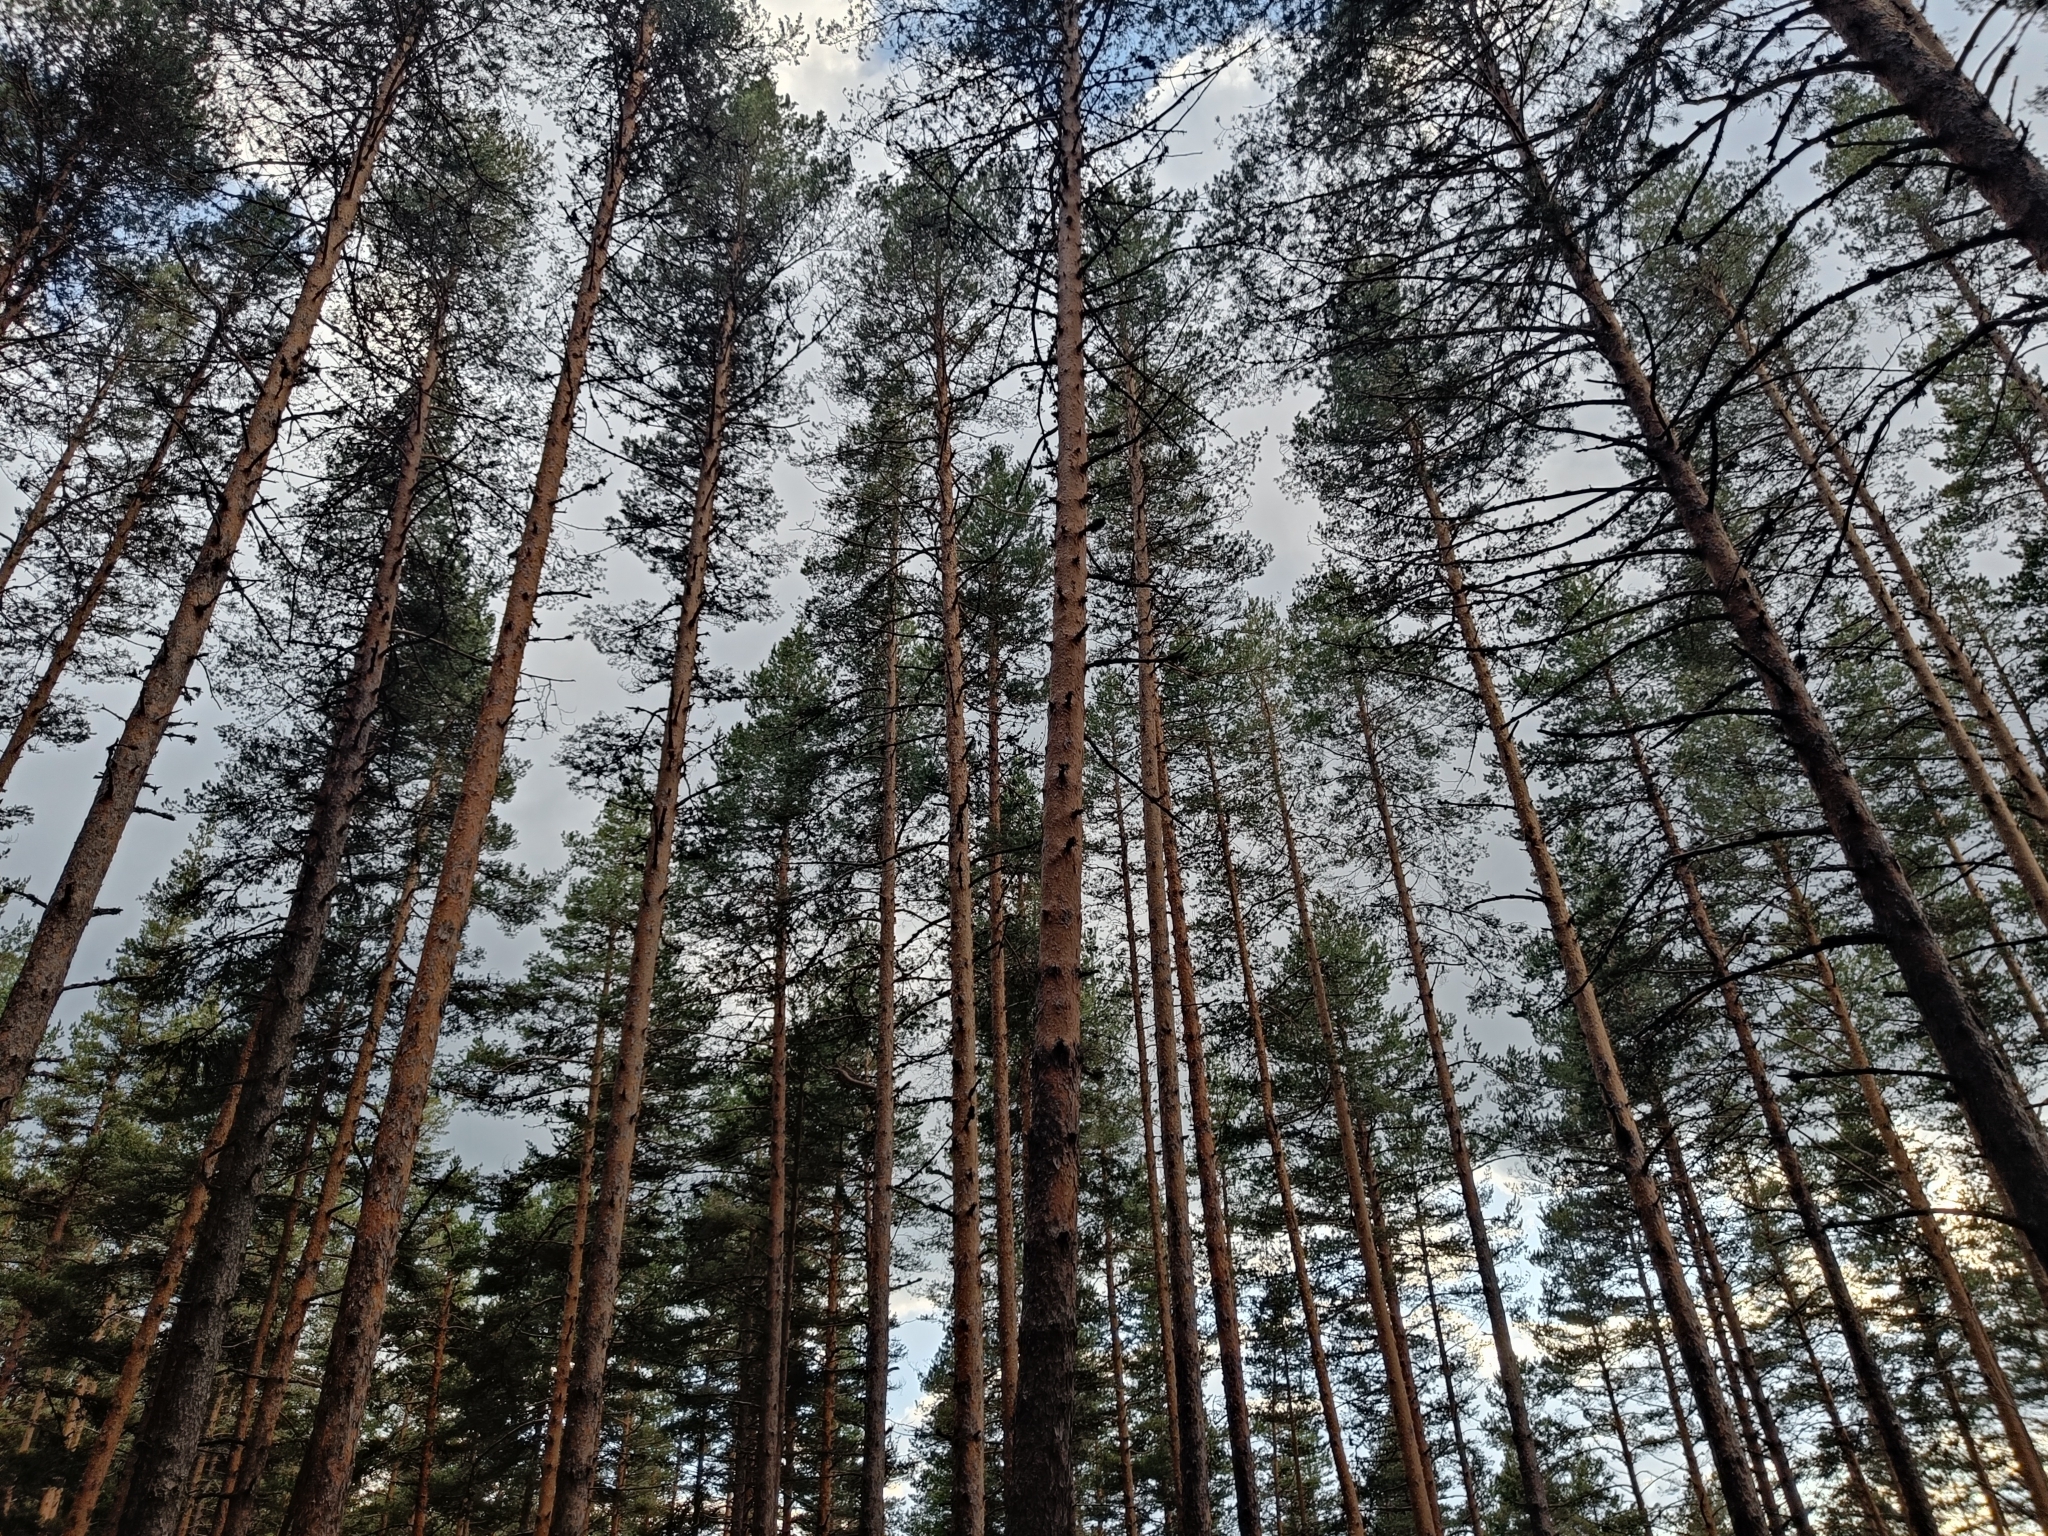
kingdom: Plantae
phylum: Tracheophyta
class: Pinopsida
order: Pinales
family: Pinaceae
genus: Pinus
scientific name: Pinus sylvestris
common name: Scots pine
